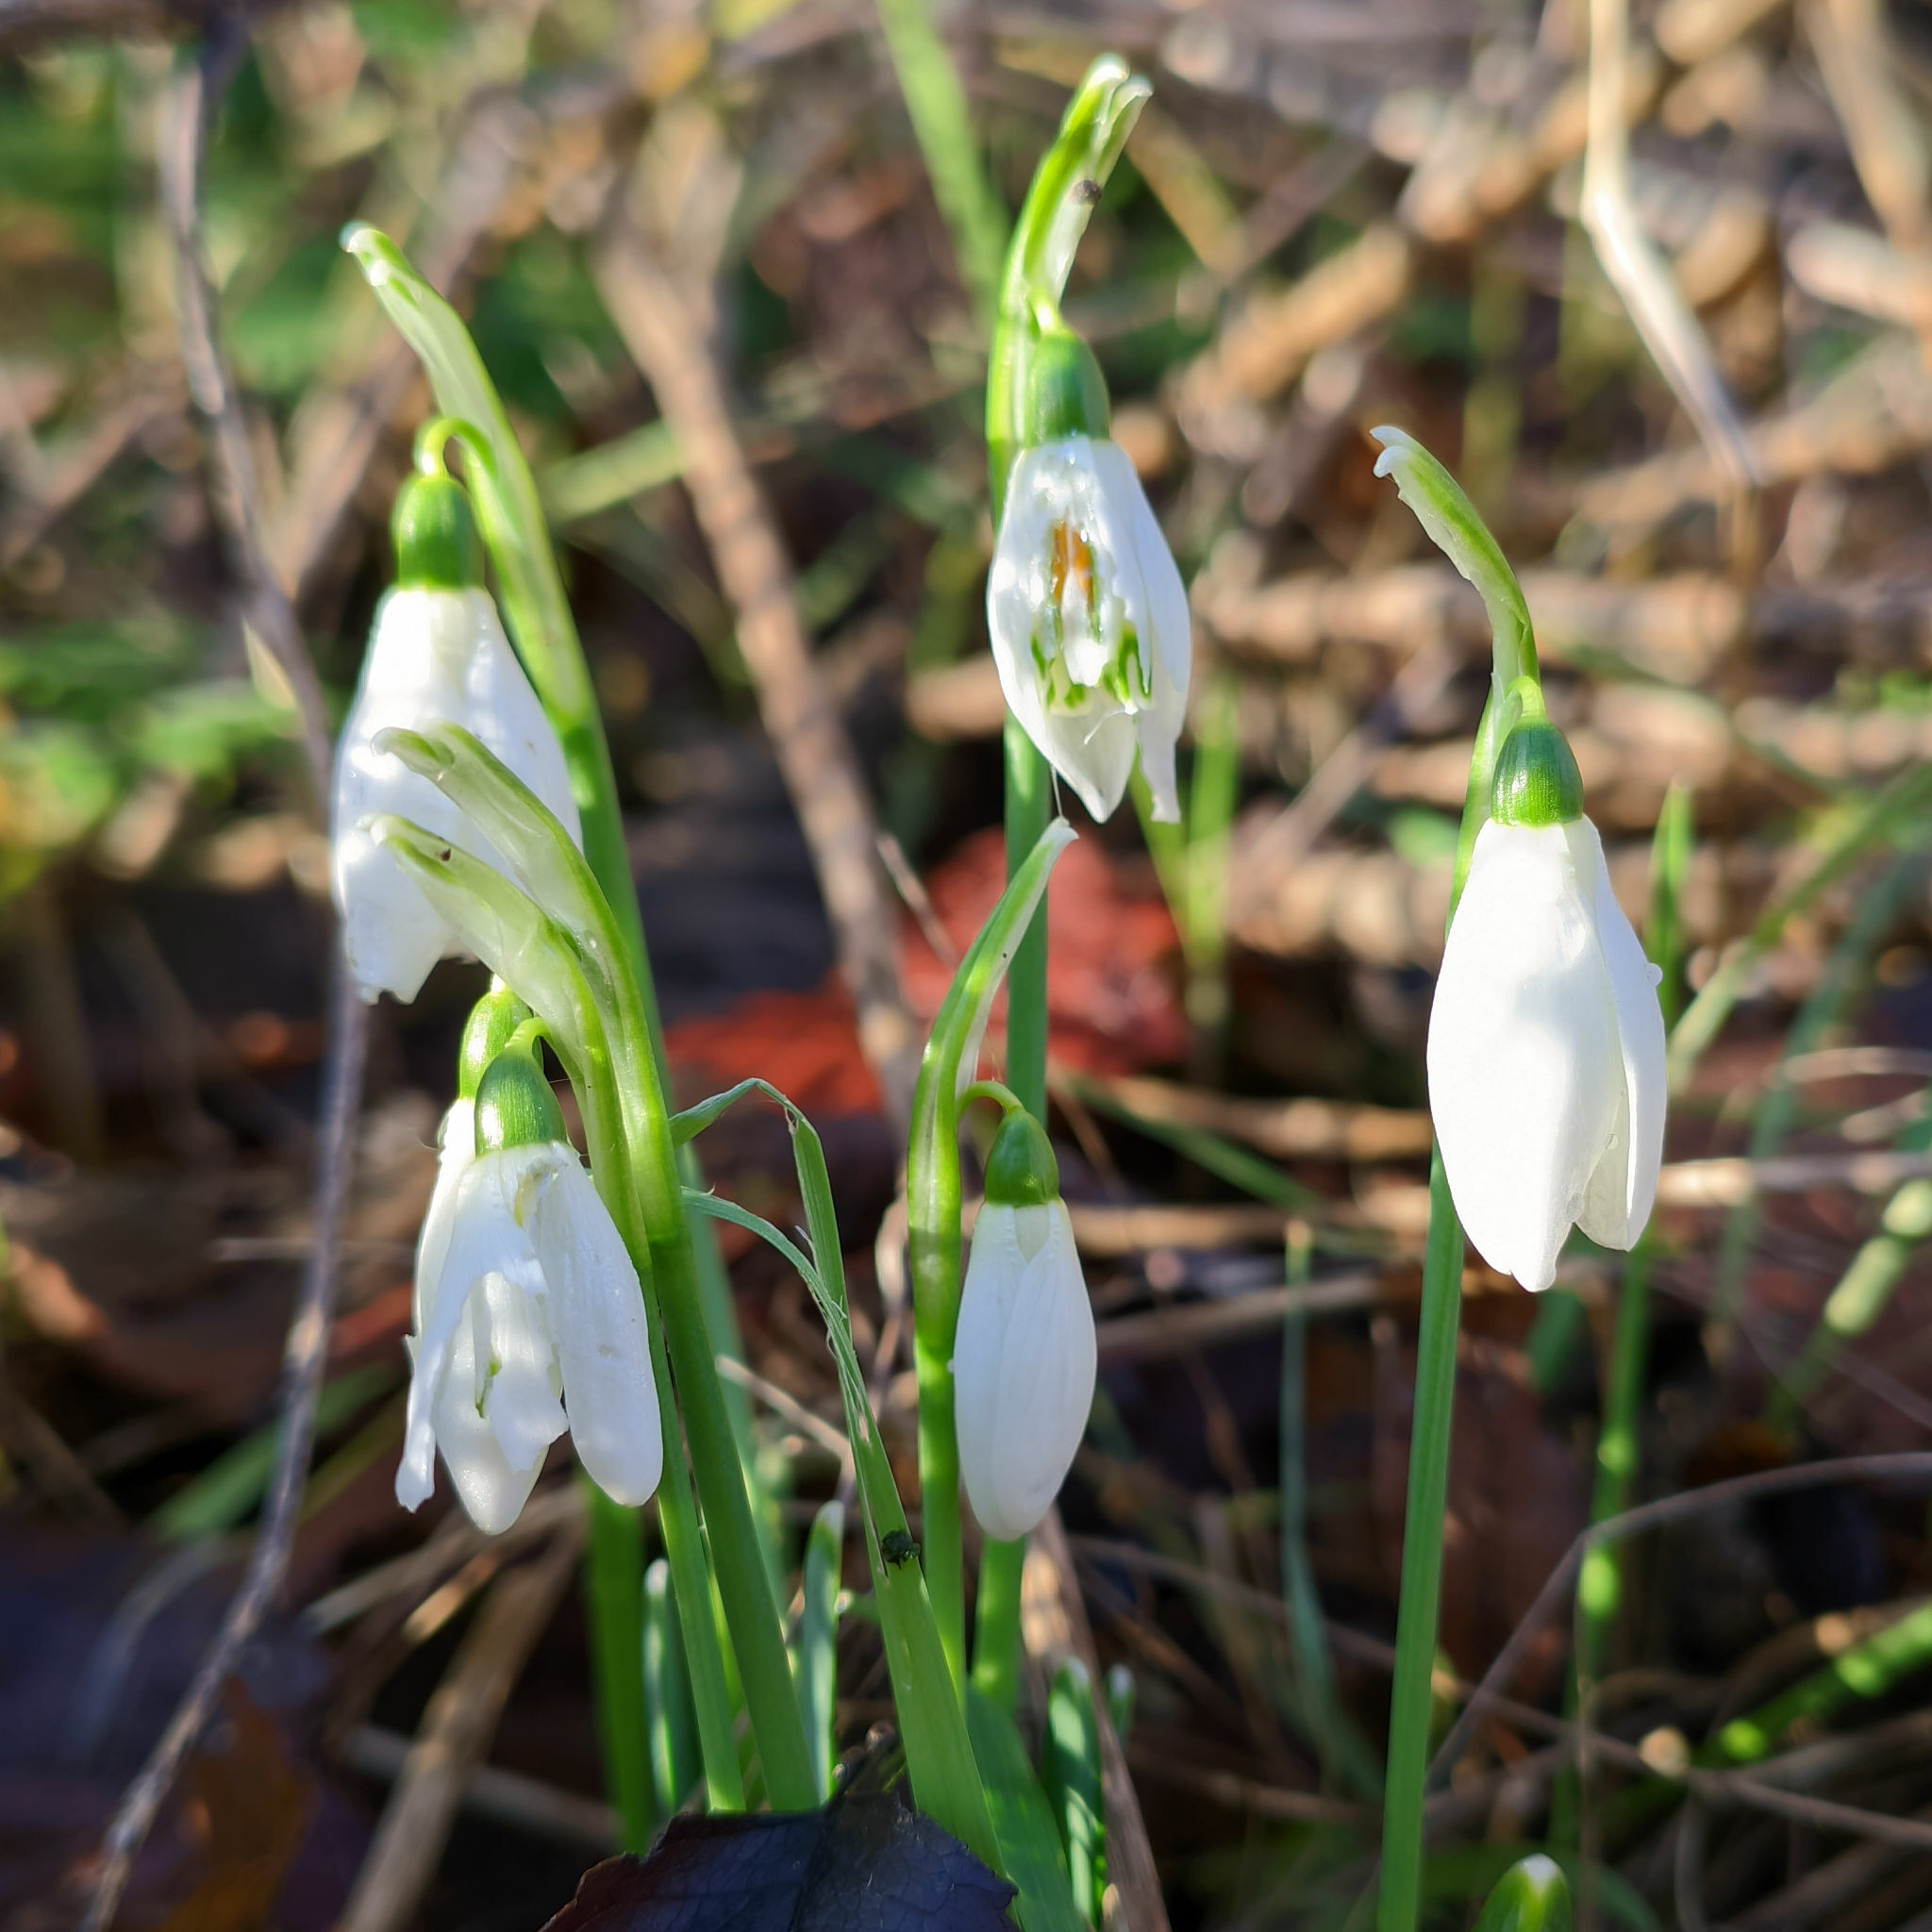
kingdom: Plantae
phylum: Tracheophyta
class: Liliopsida
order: Asparagales
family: Amaryllidaceae
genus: Galanthus
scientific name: Galanthus nivalis
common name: Snowdrop
